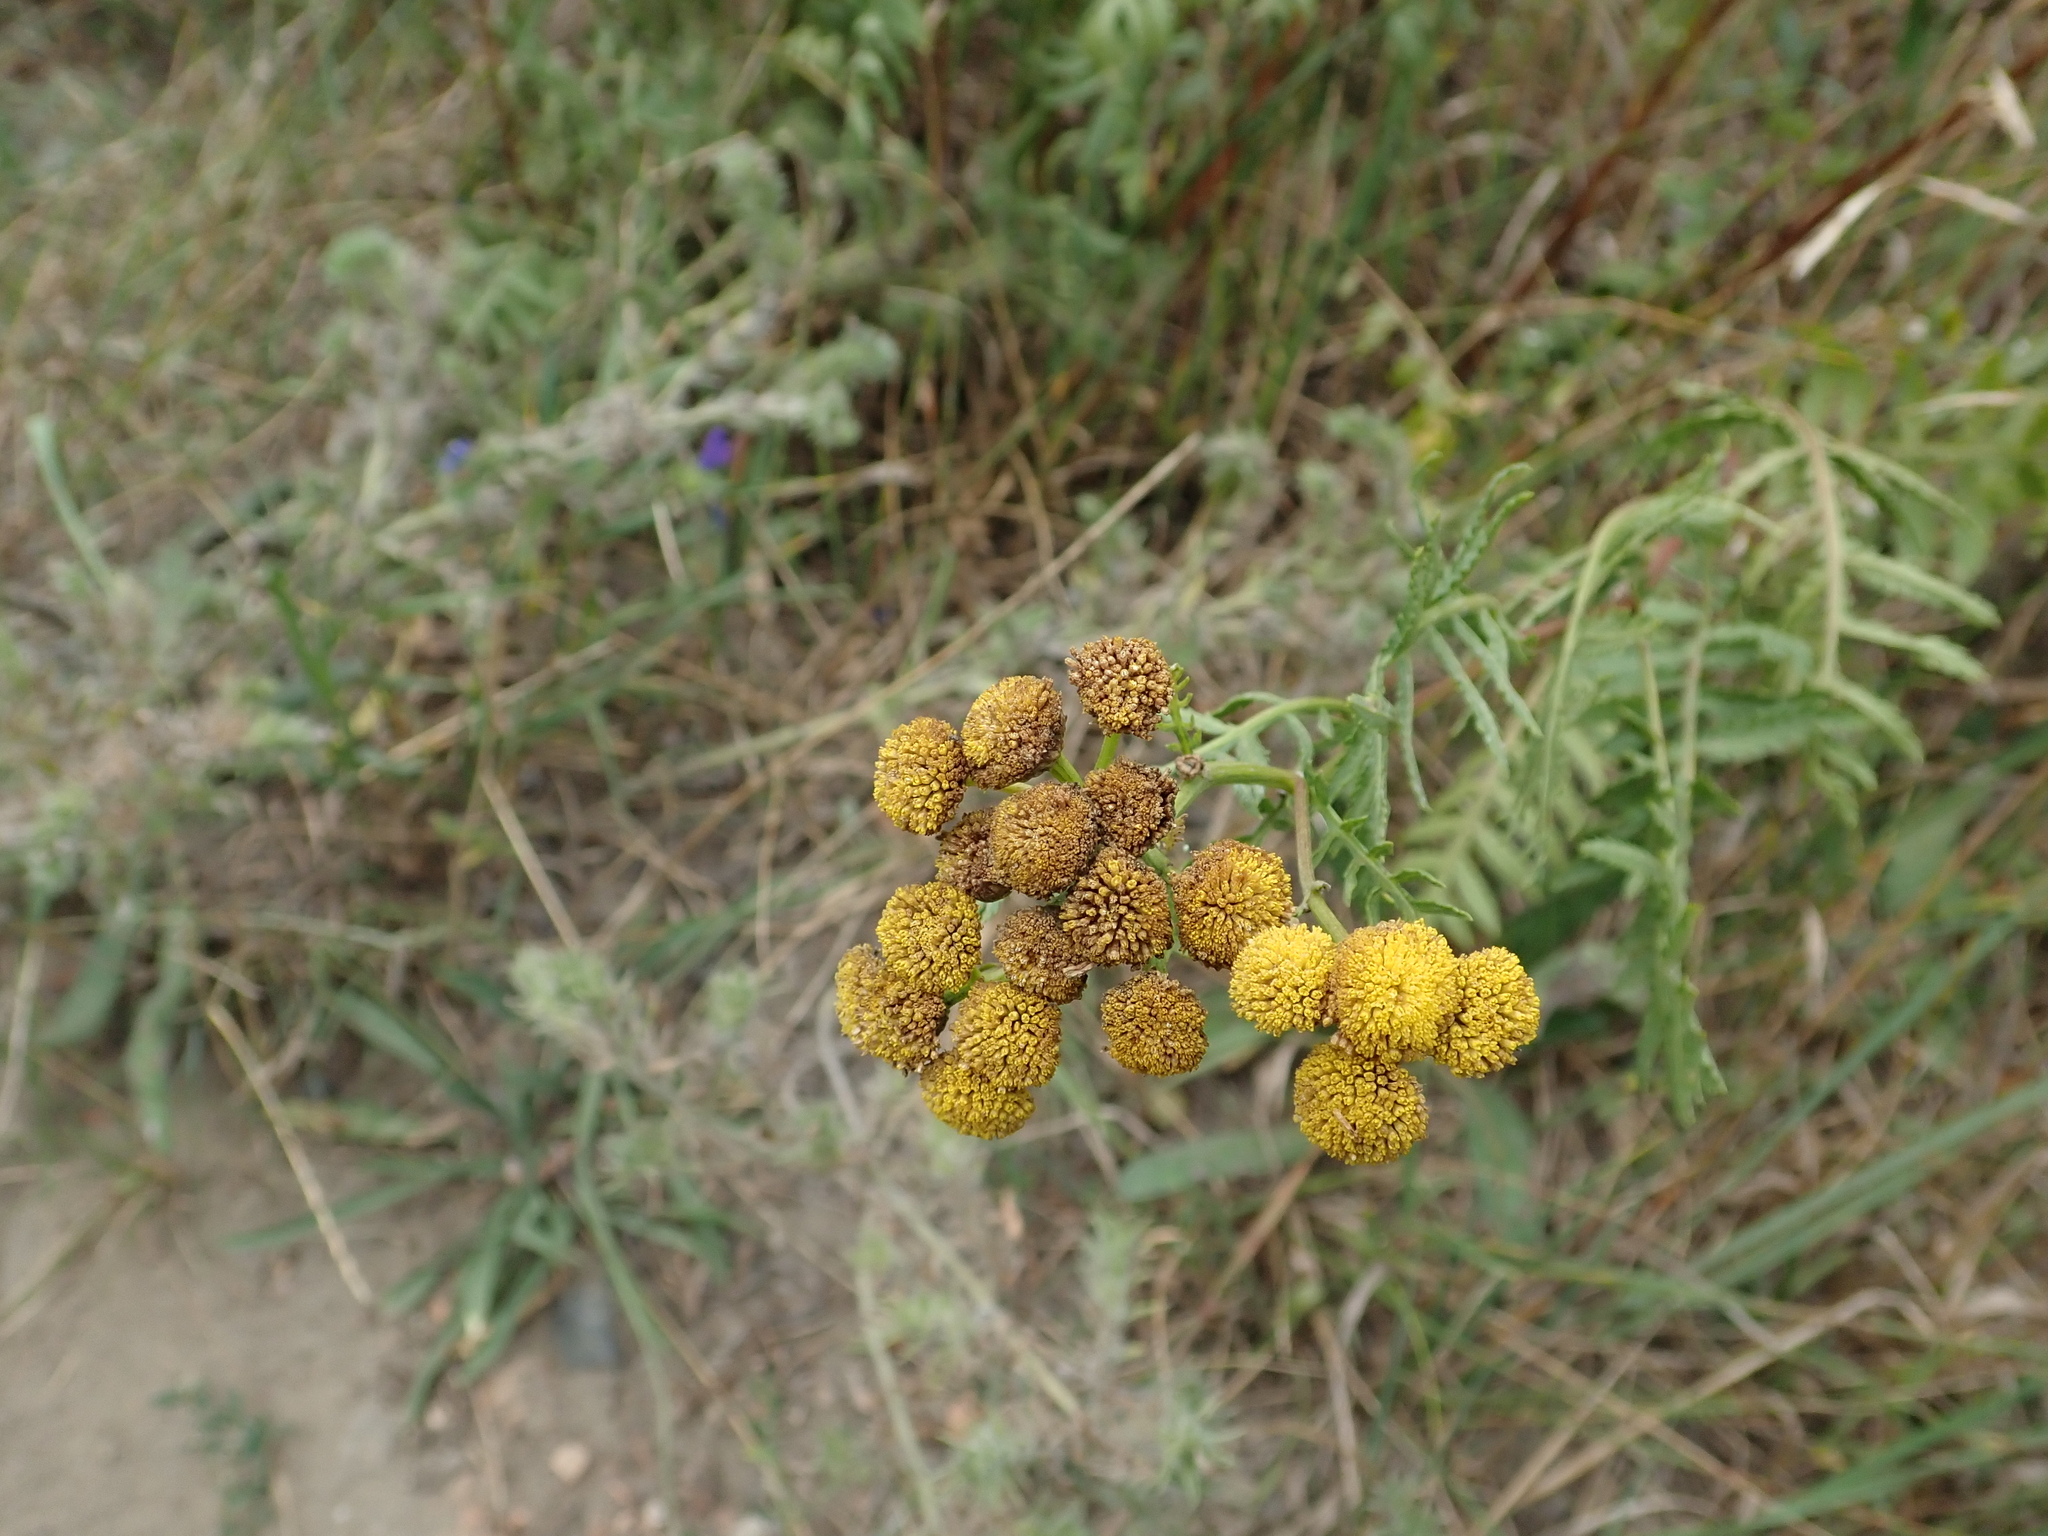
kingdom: Plantae
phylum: Tracheophyta
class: Magnoliopsida
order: Asterales
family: Asteraceae
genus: Tanacetum
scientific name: Tanacetum vulgare
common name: Common tansy
